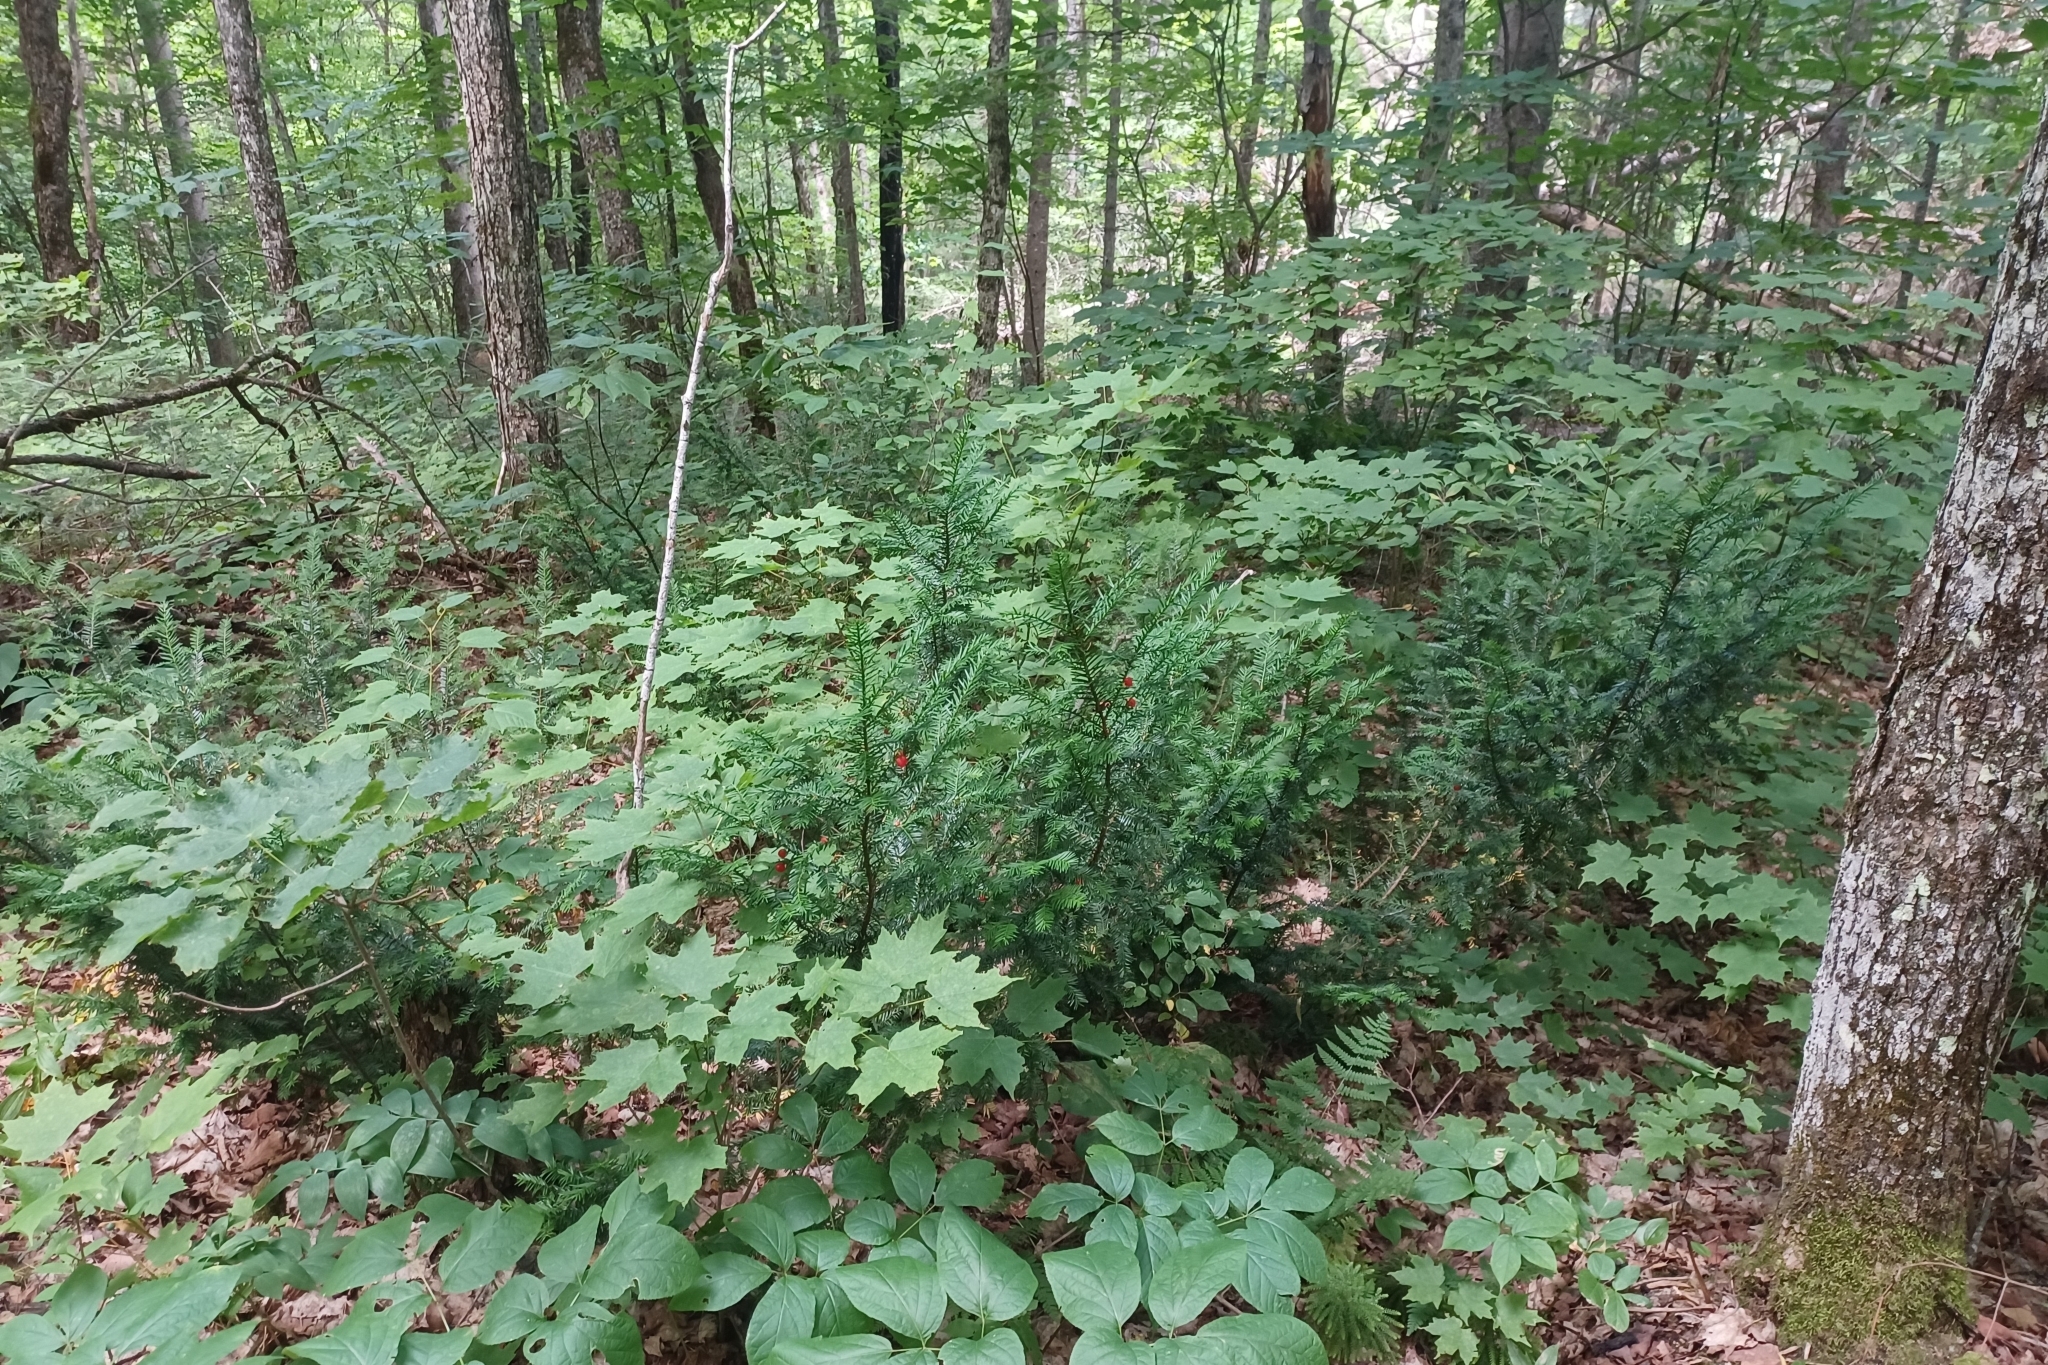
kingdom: Plantae
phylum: Tracheophyta
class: Pinopsida
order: Pinales
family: Taxaceae
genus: Taxus
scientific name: Taxus canadensis
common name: American yew
